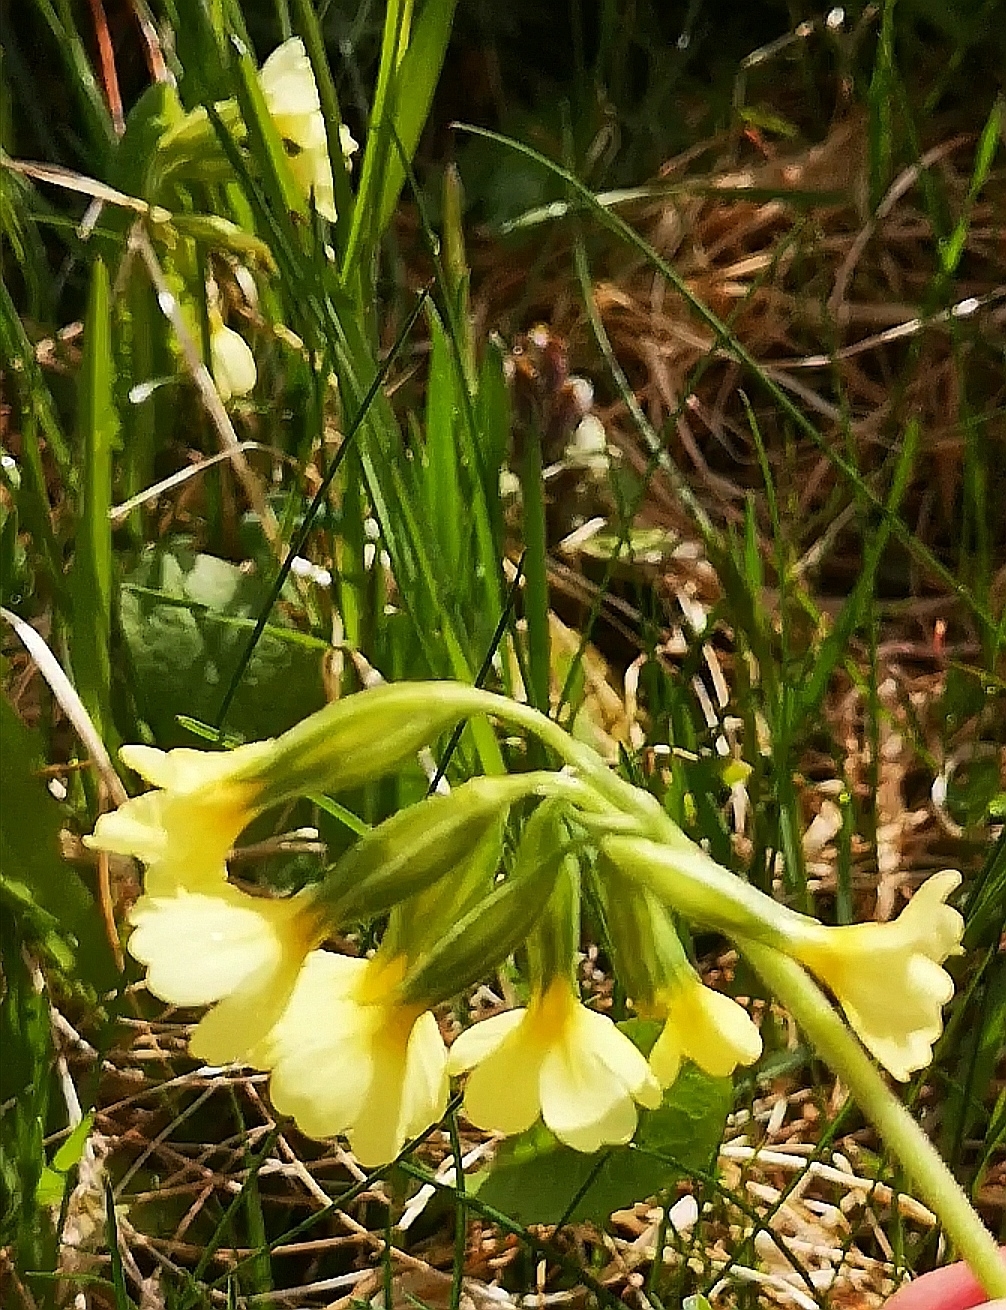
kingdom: Plantae
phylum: Tracheophyta
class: Magnoliopsida
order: Ericales
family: Primulaceae
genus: Primula
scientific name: Primula elatior
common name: Oxlip
